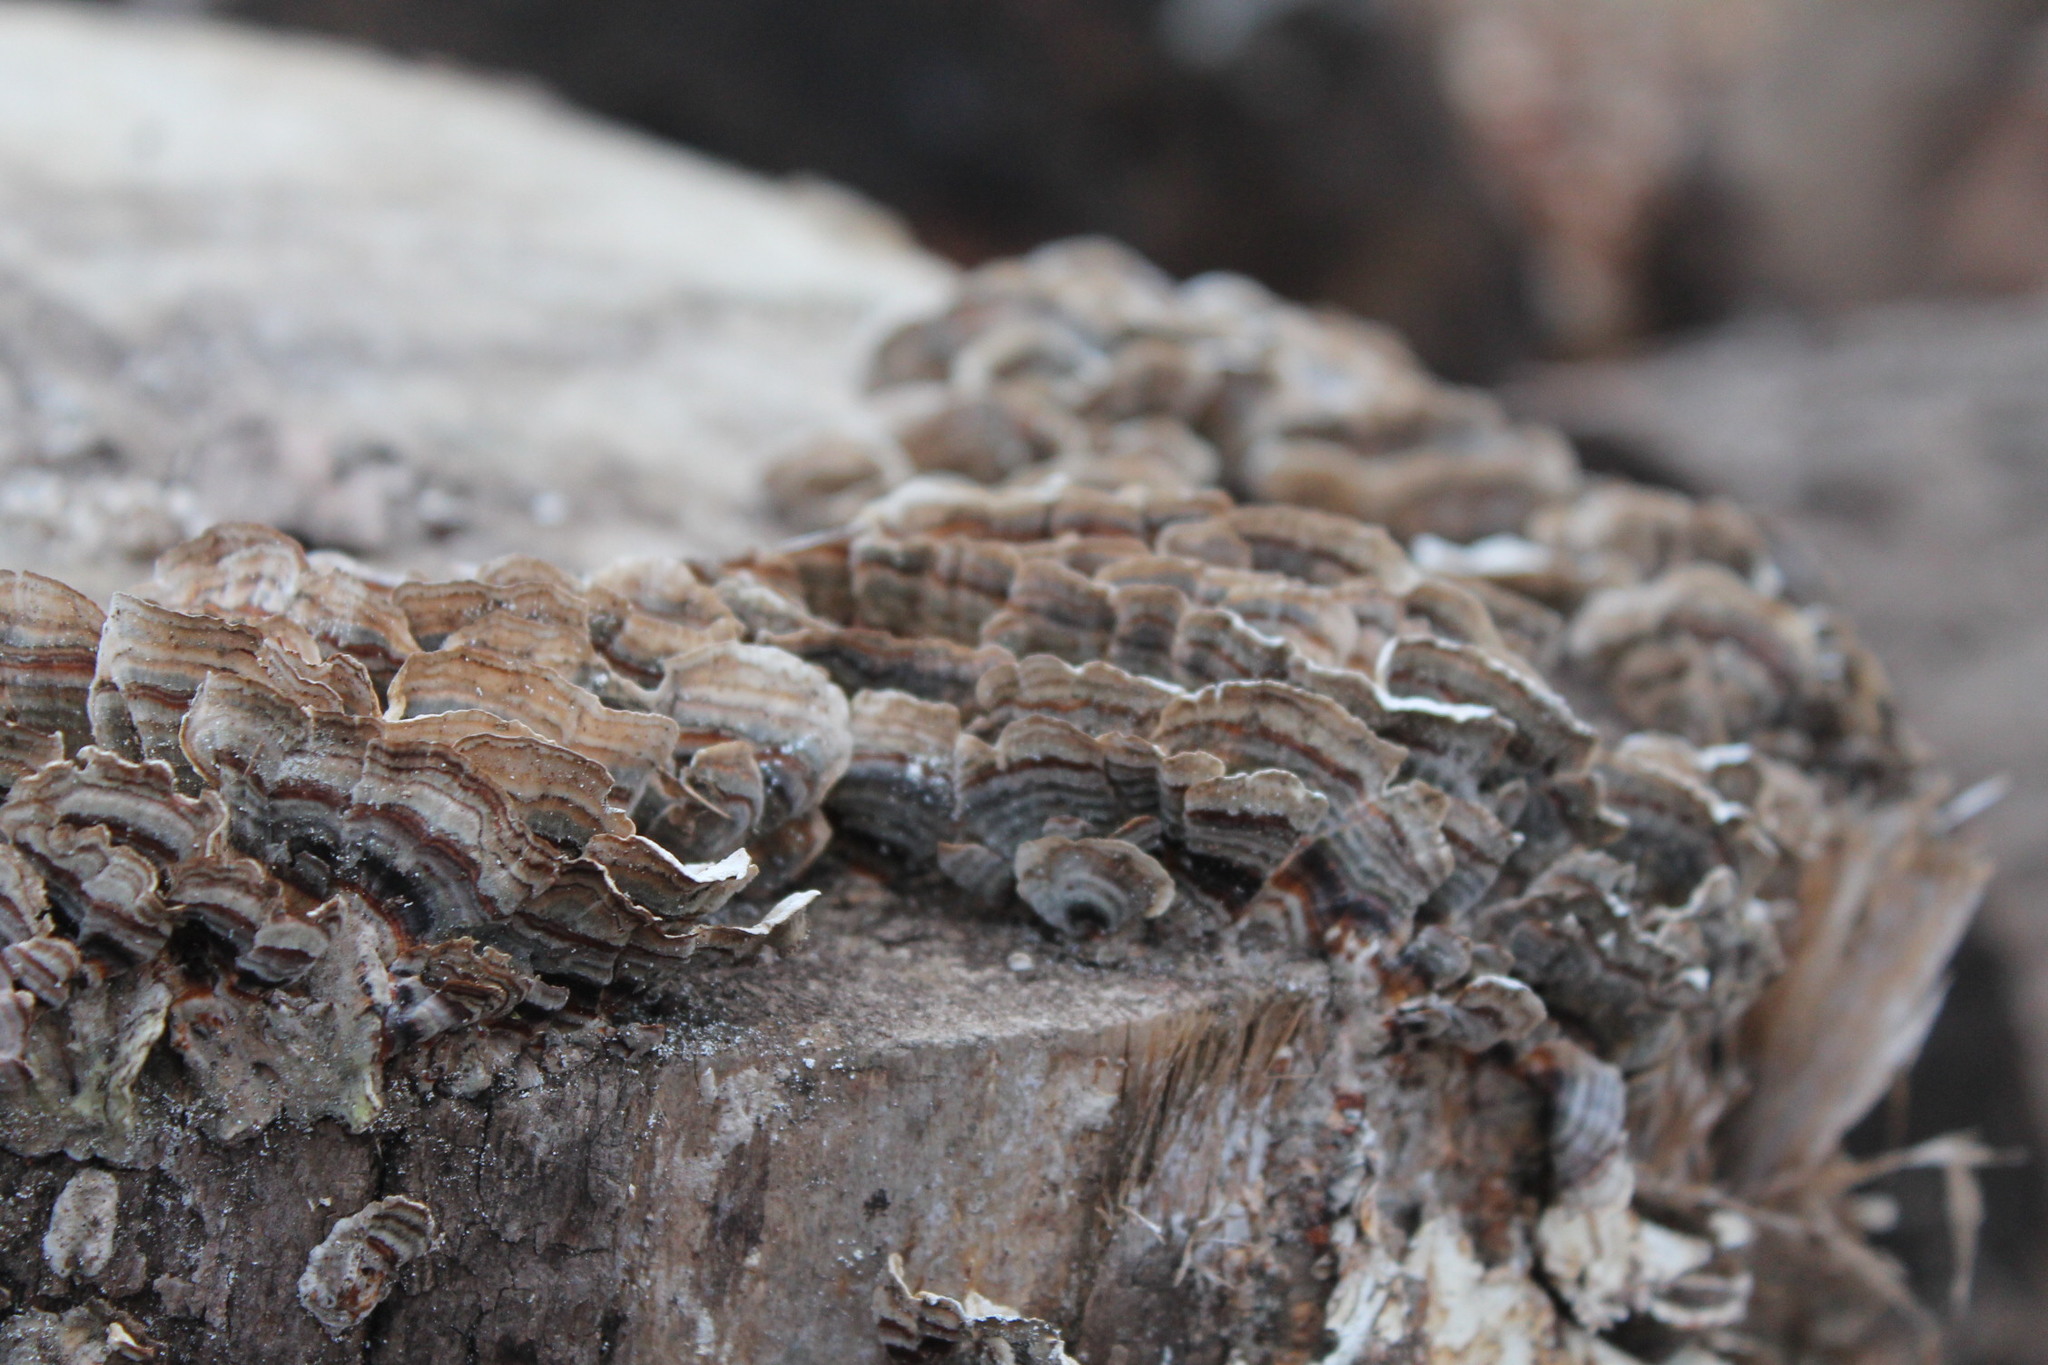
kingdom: Fungi
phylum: Basidiomycota
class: Agaricomycetes
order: Polyporales
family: Polyporaceae
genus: Trametes
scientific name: Trametes versicolor
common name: Turkeytail
